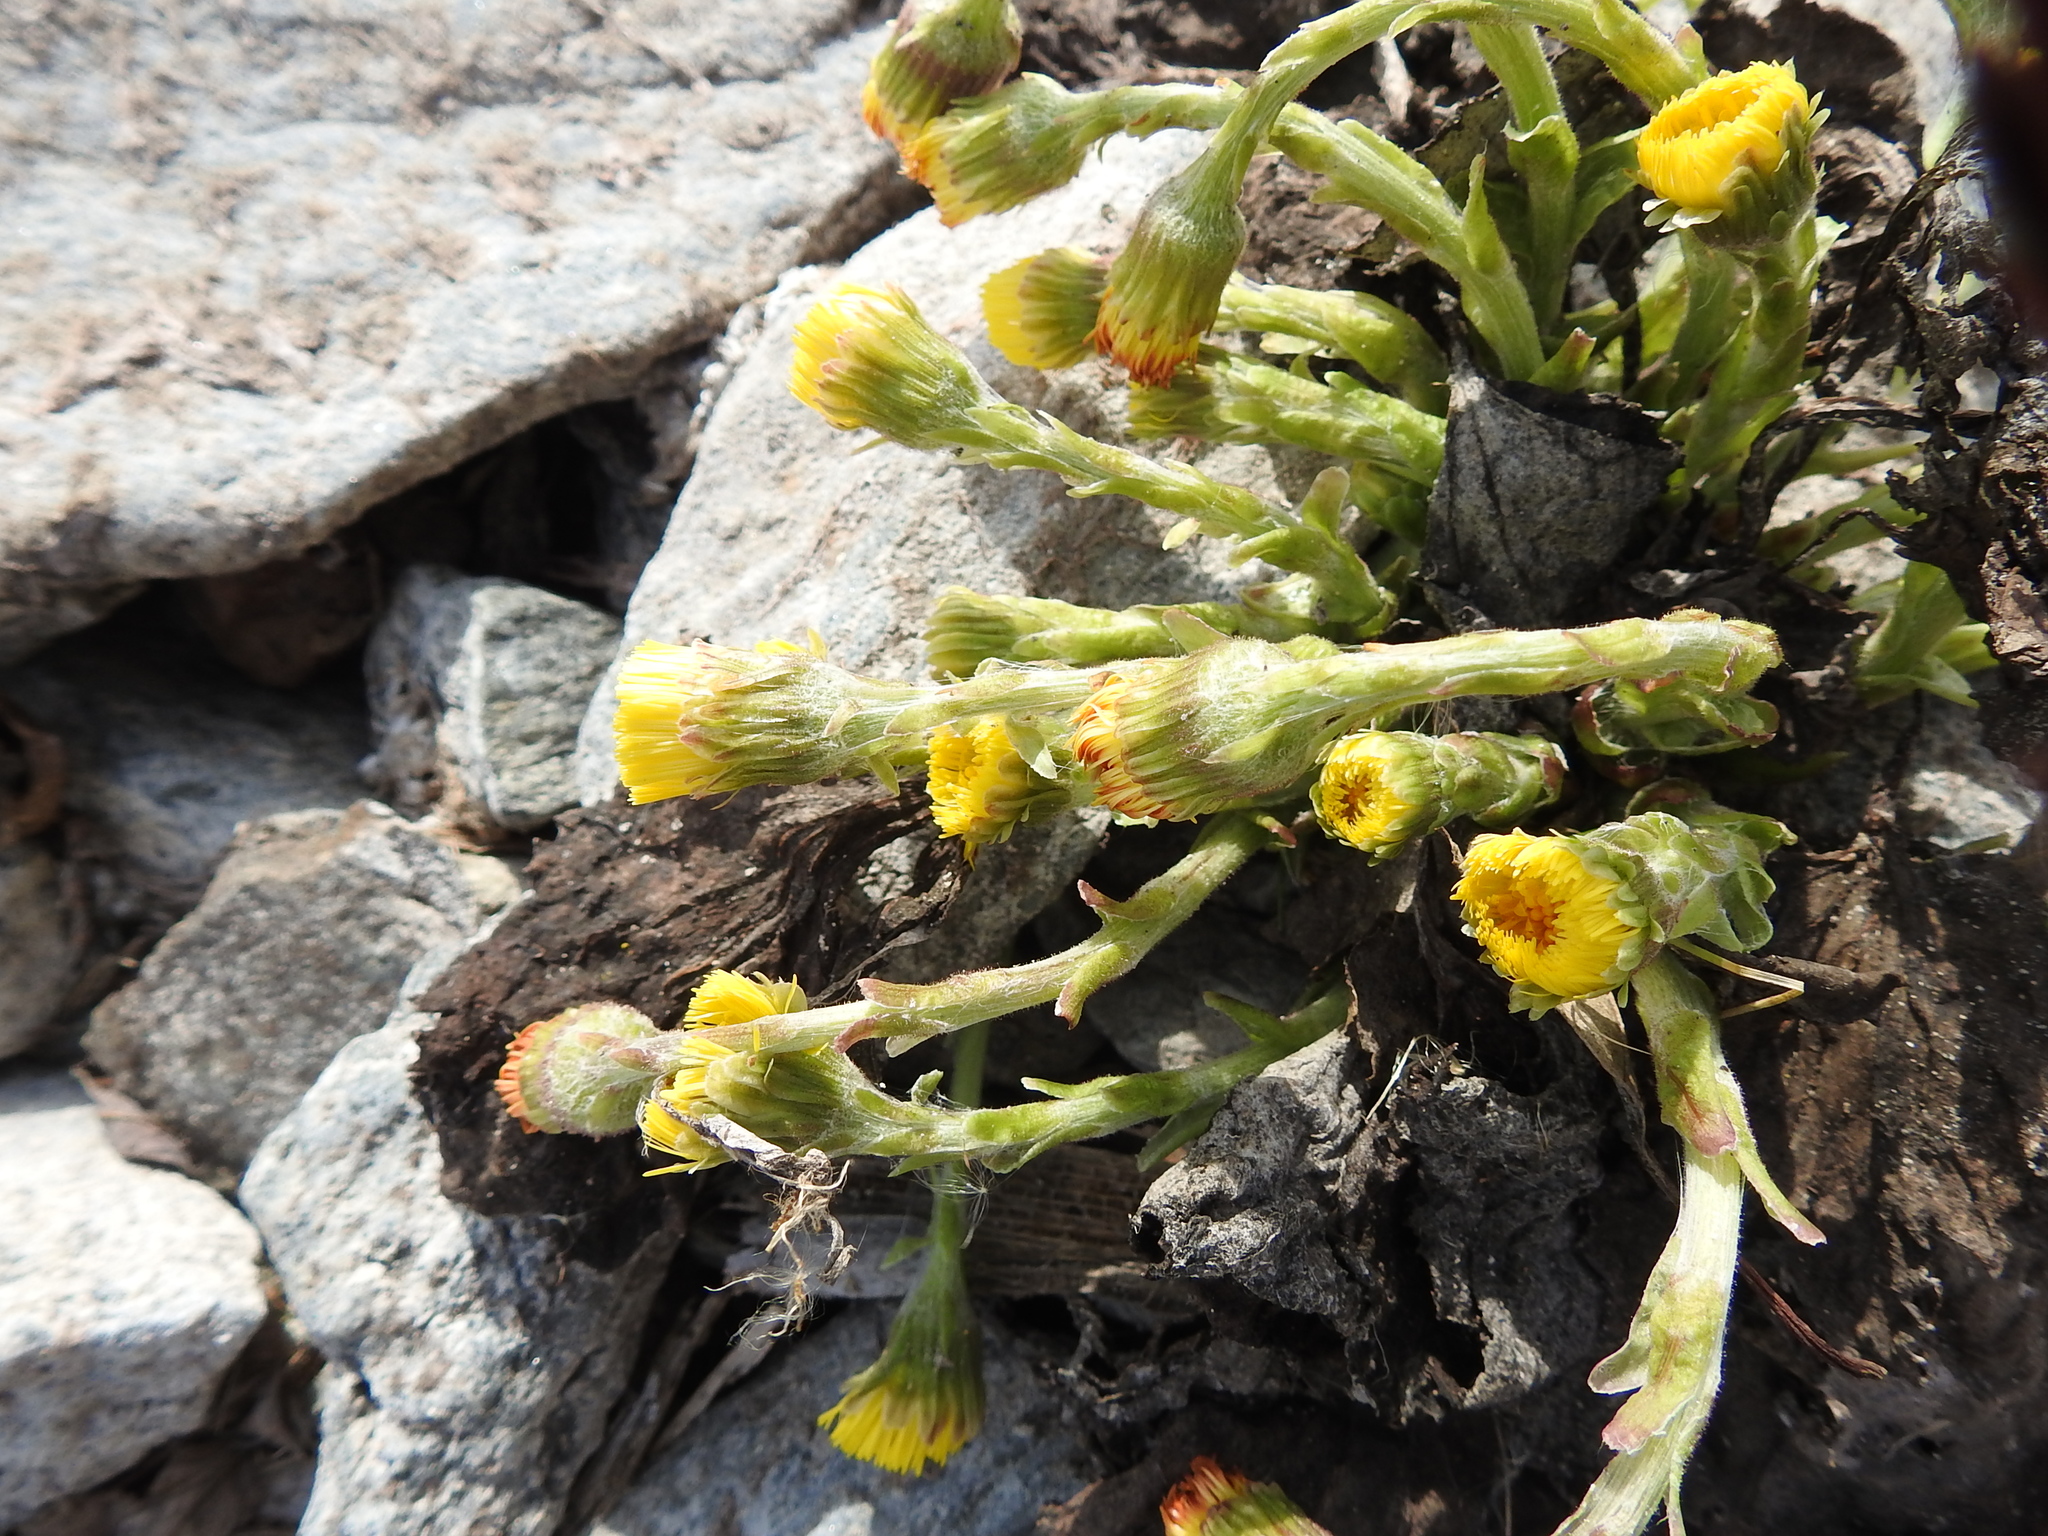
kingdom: Plantae
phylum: Tracheophyta
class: Magnoliopsida
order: Asterales
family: Asteraceae
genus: Tussilago
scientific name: Tussilago farfara
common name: Coltsfoot
